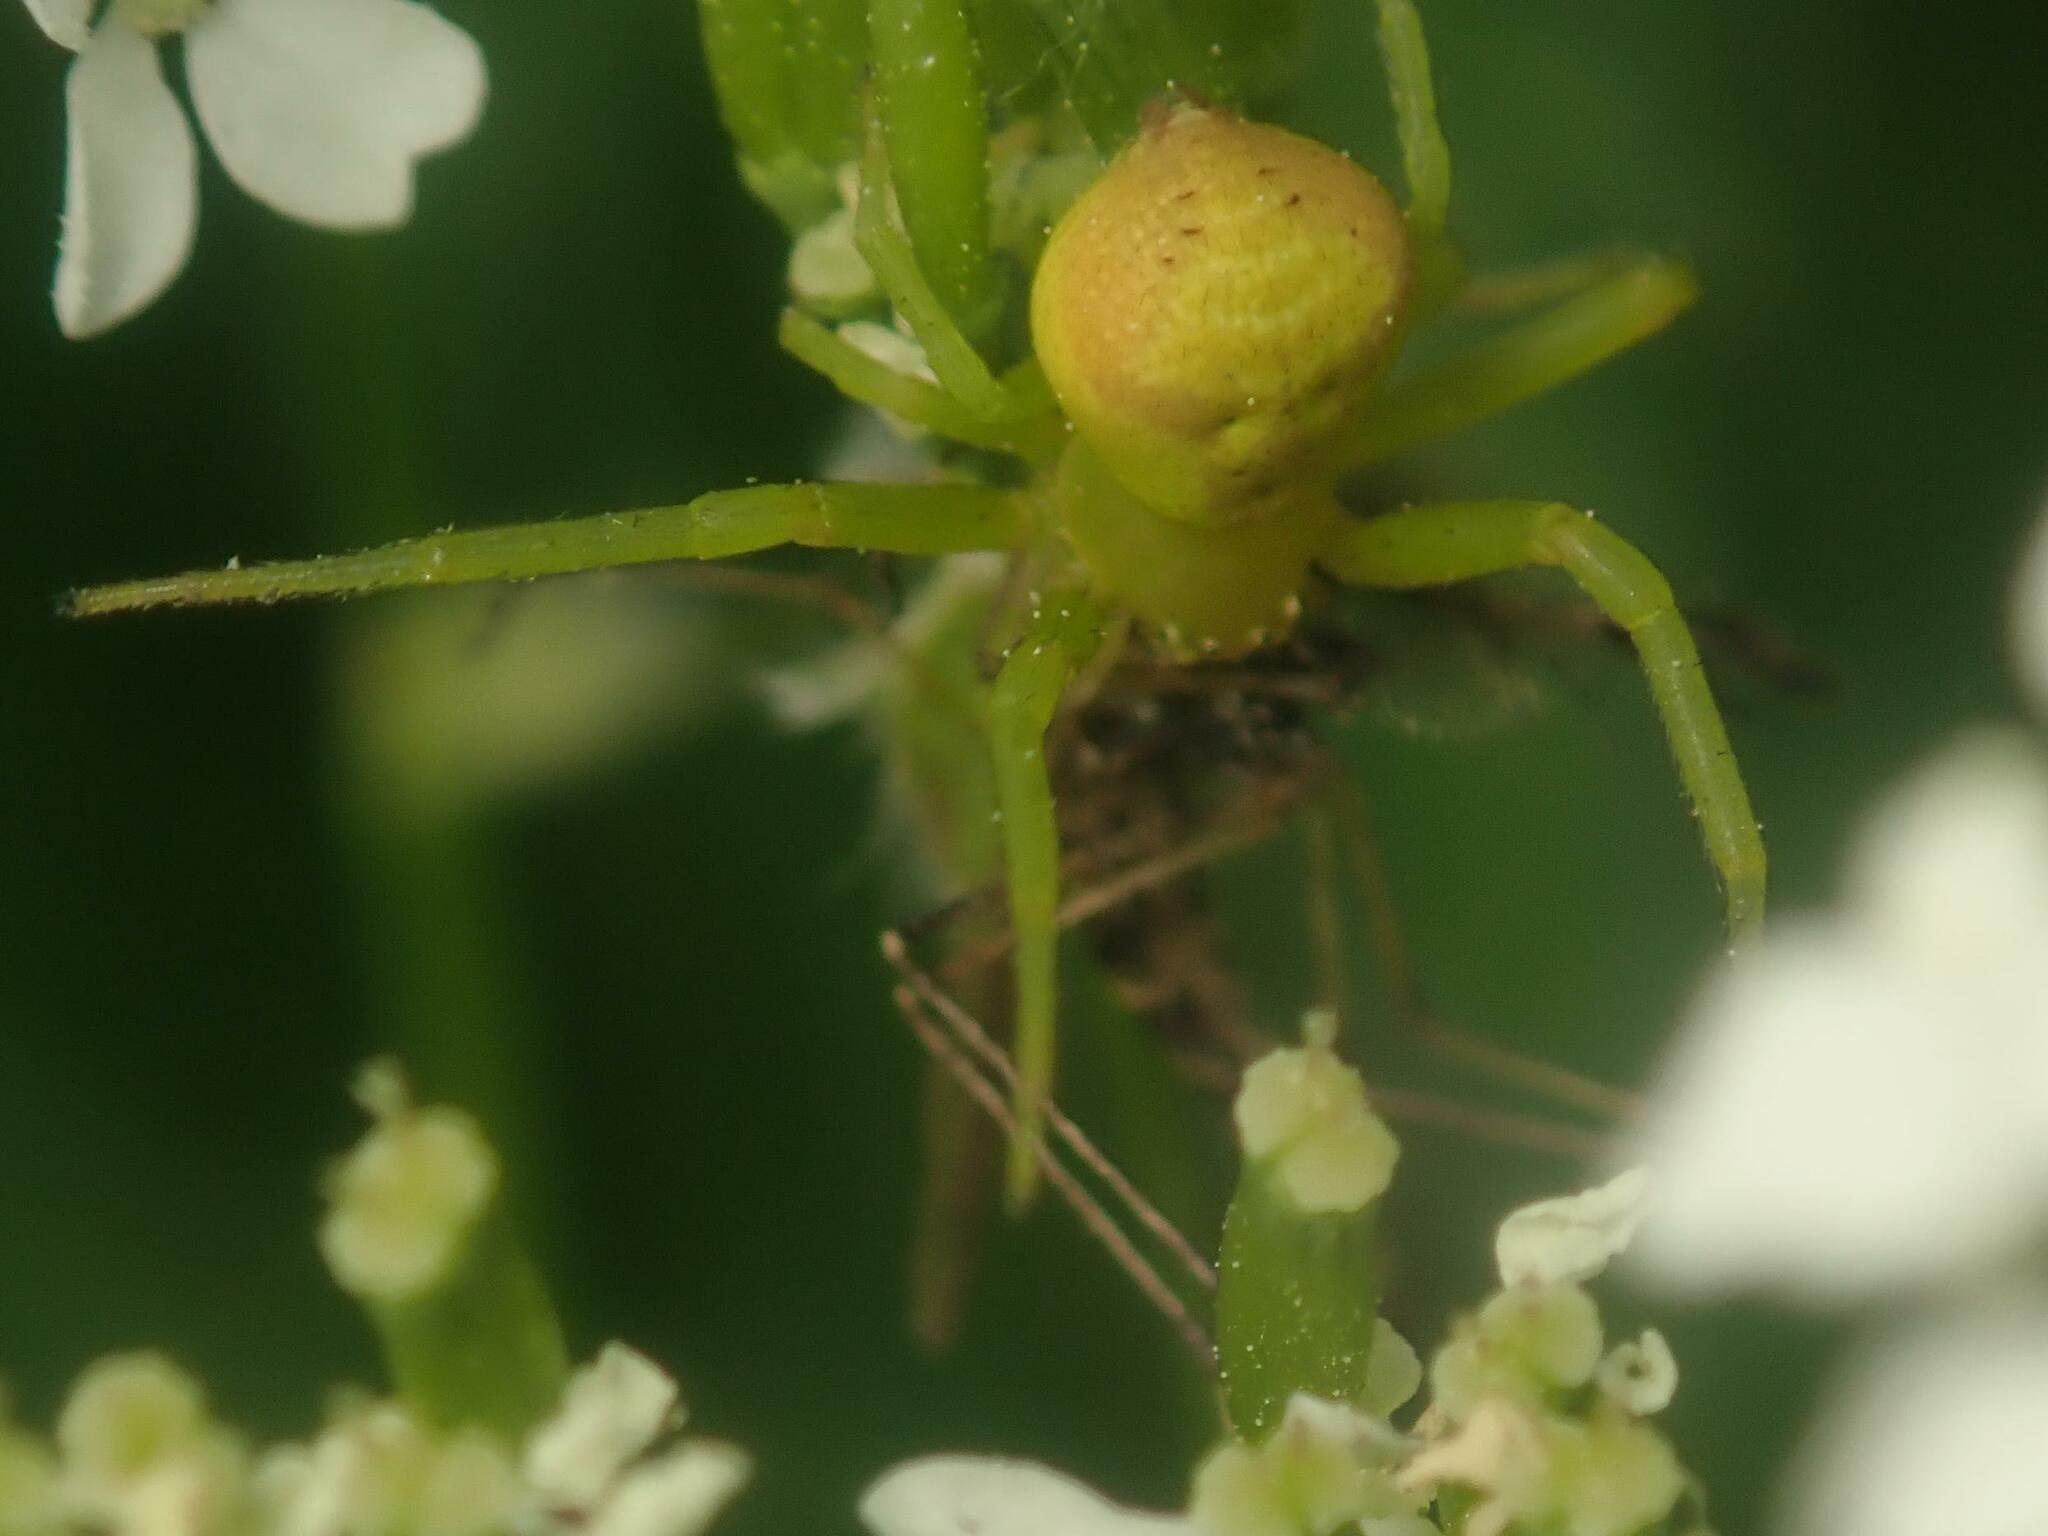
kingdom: Animalia
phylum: Arthropoda
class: Arachnida
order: Araneae
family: Thomisidae
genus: Ebrechtella
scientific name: Ebrechtella tricuspidata
